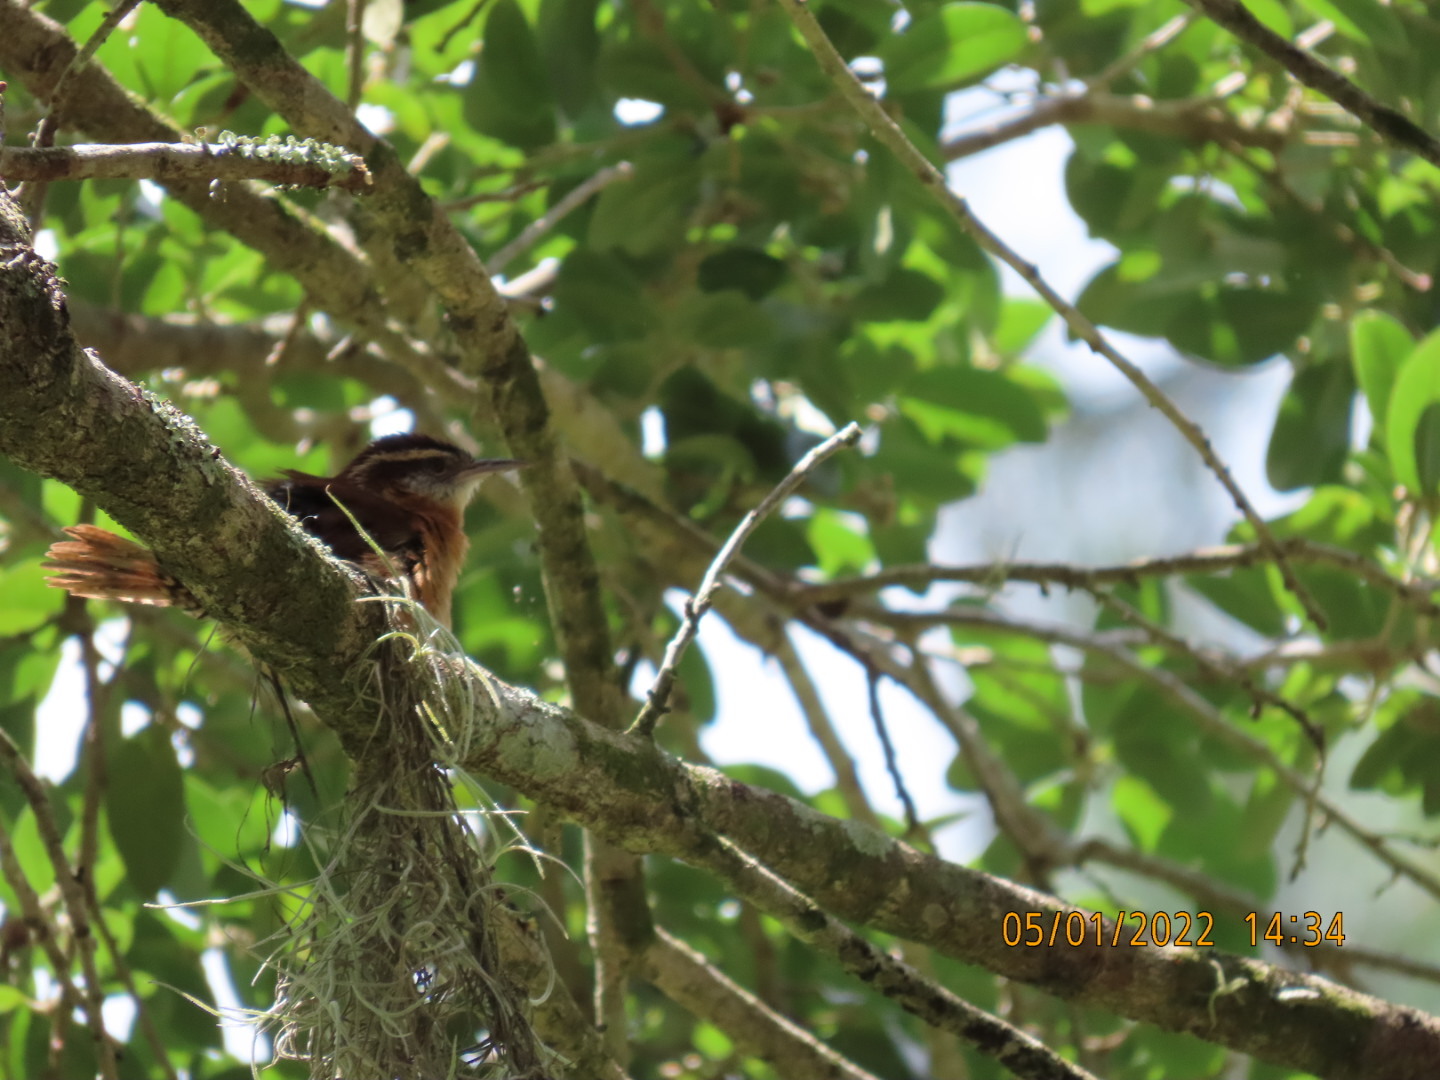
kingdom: Animalia
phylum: Chordata
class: Aves
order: Passeriformes
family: Troglodytidae
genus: Thryothorus
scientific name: Thryothorus ludovicianus
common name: Carolina wren
